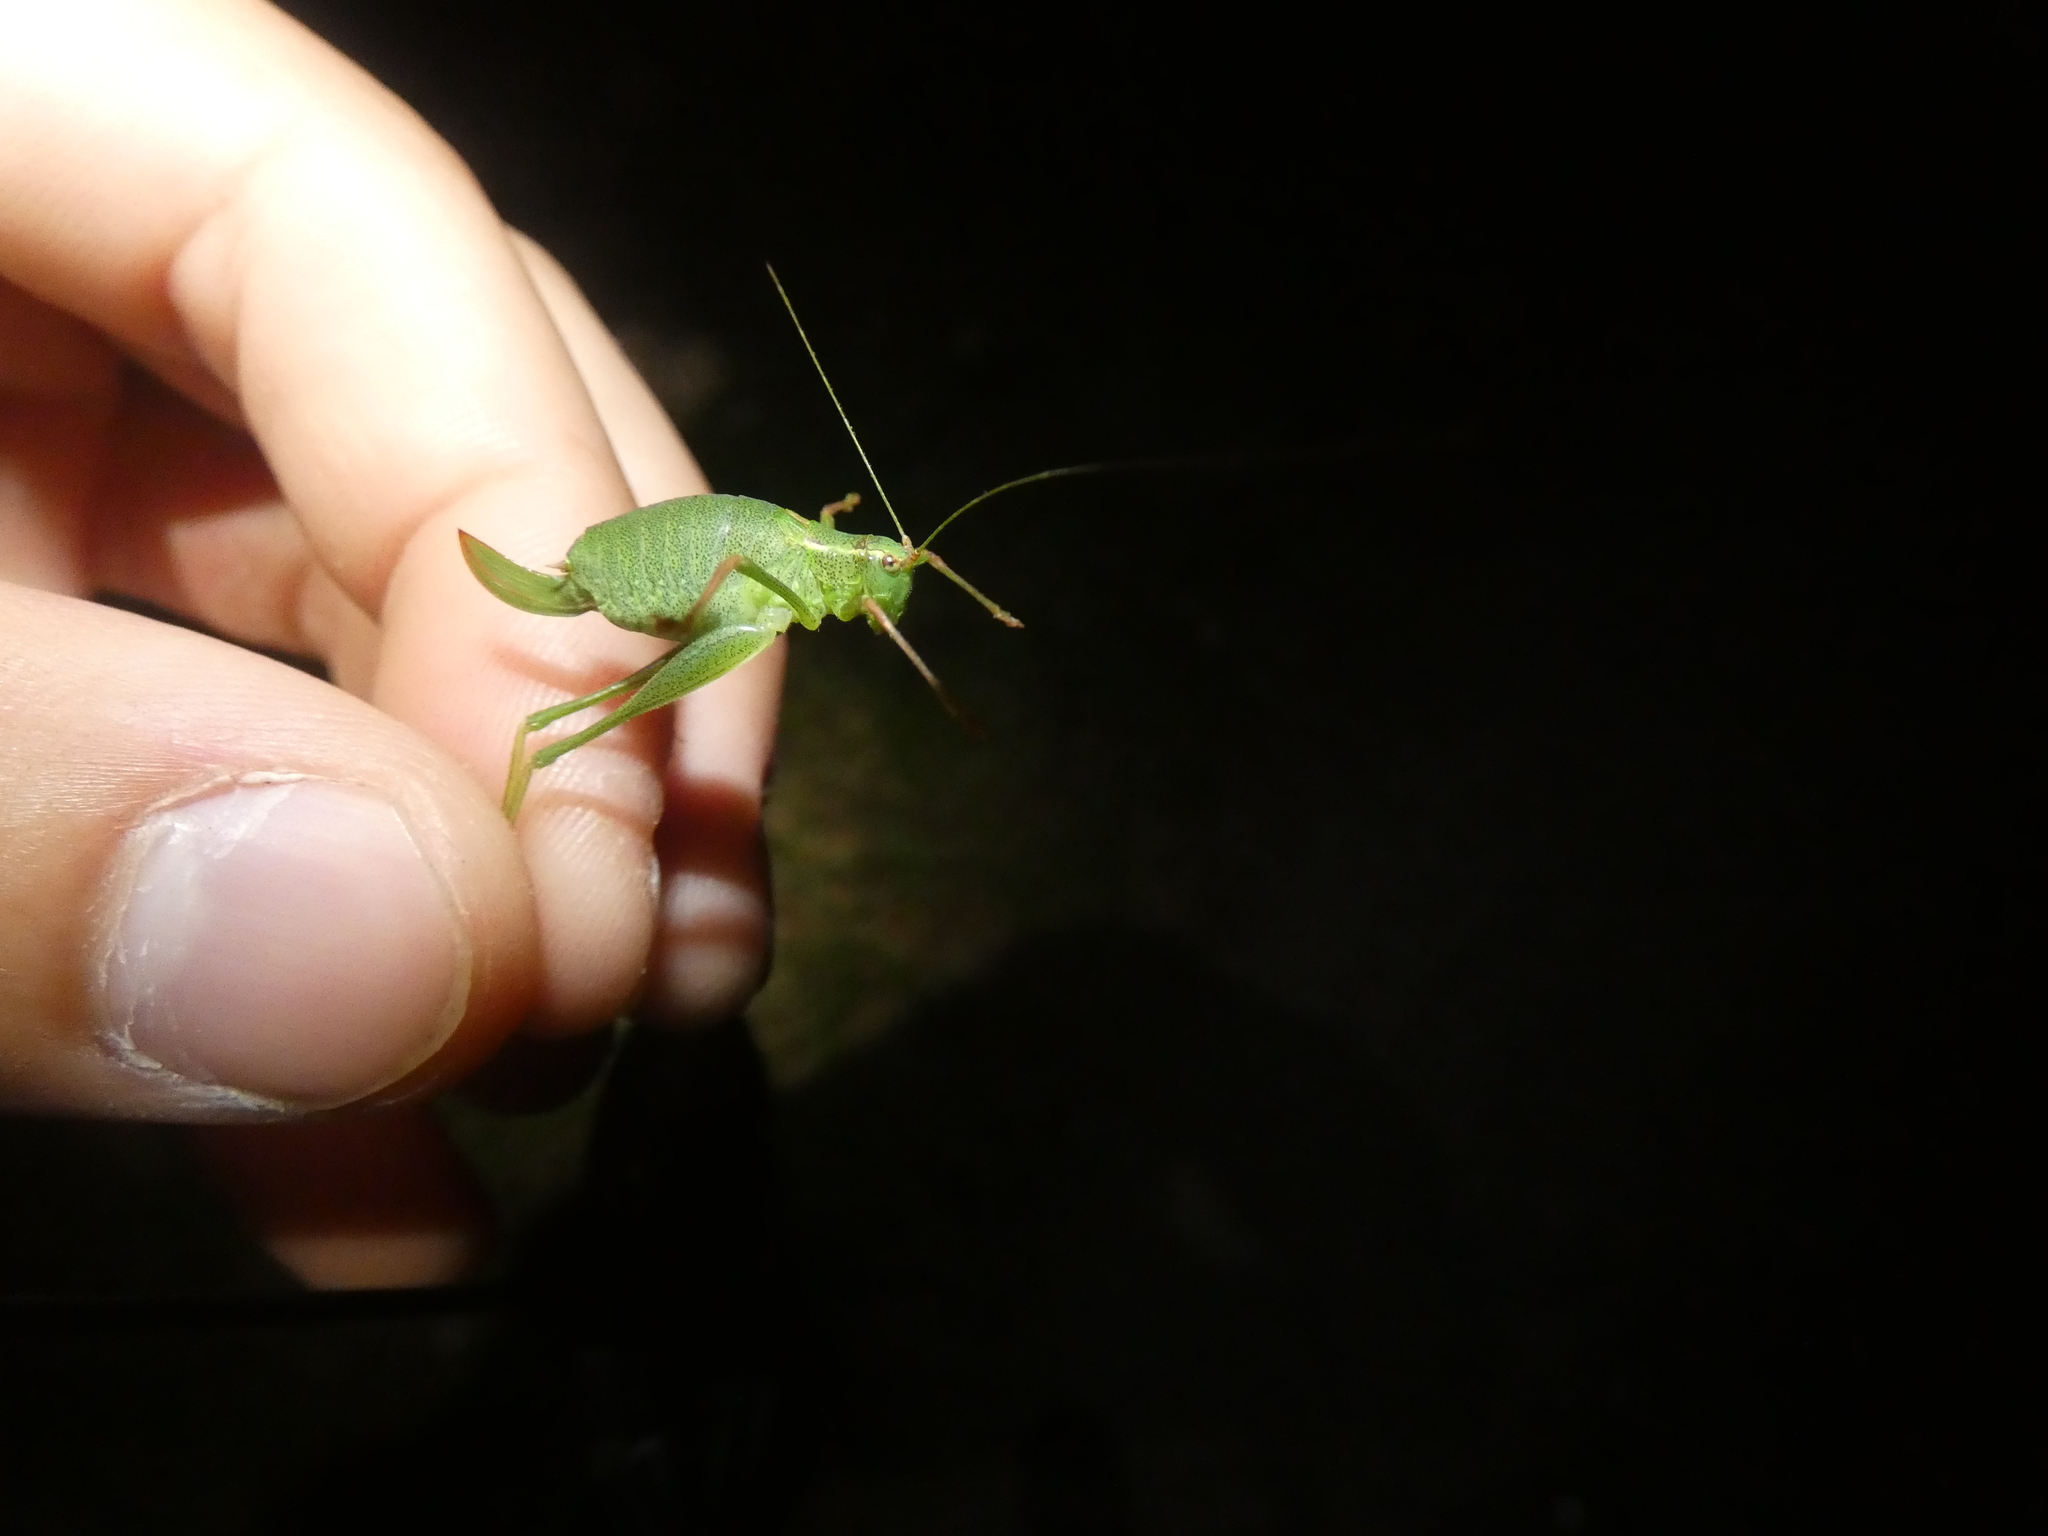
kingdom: Animalia
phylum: Arthropoda
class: Insecta
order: Orthoptera
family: Tettigoniidae
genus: Leptophyes
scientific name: Leptophyes punctatissima
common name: Speckled bush-cricket
